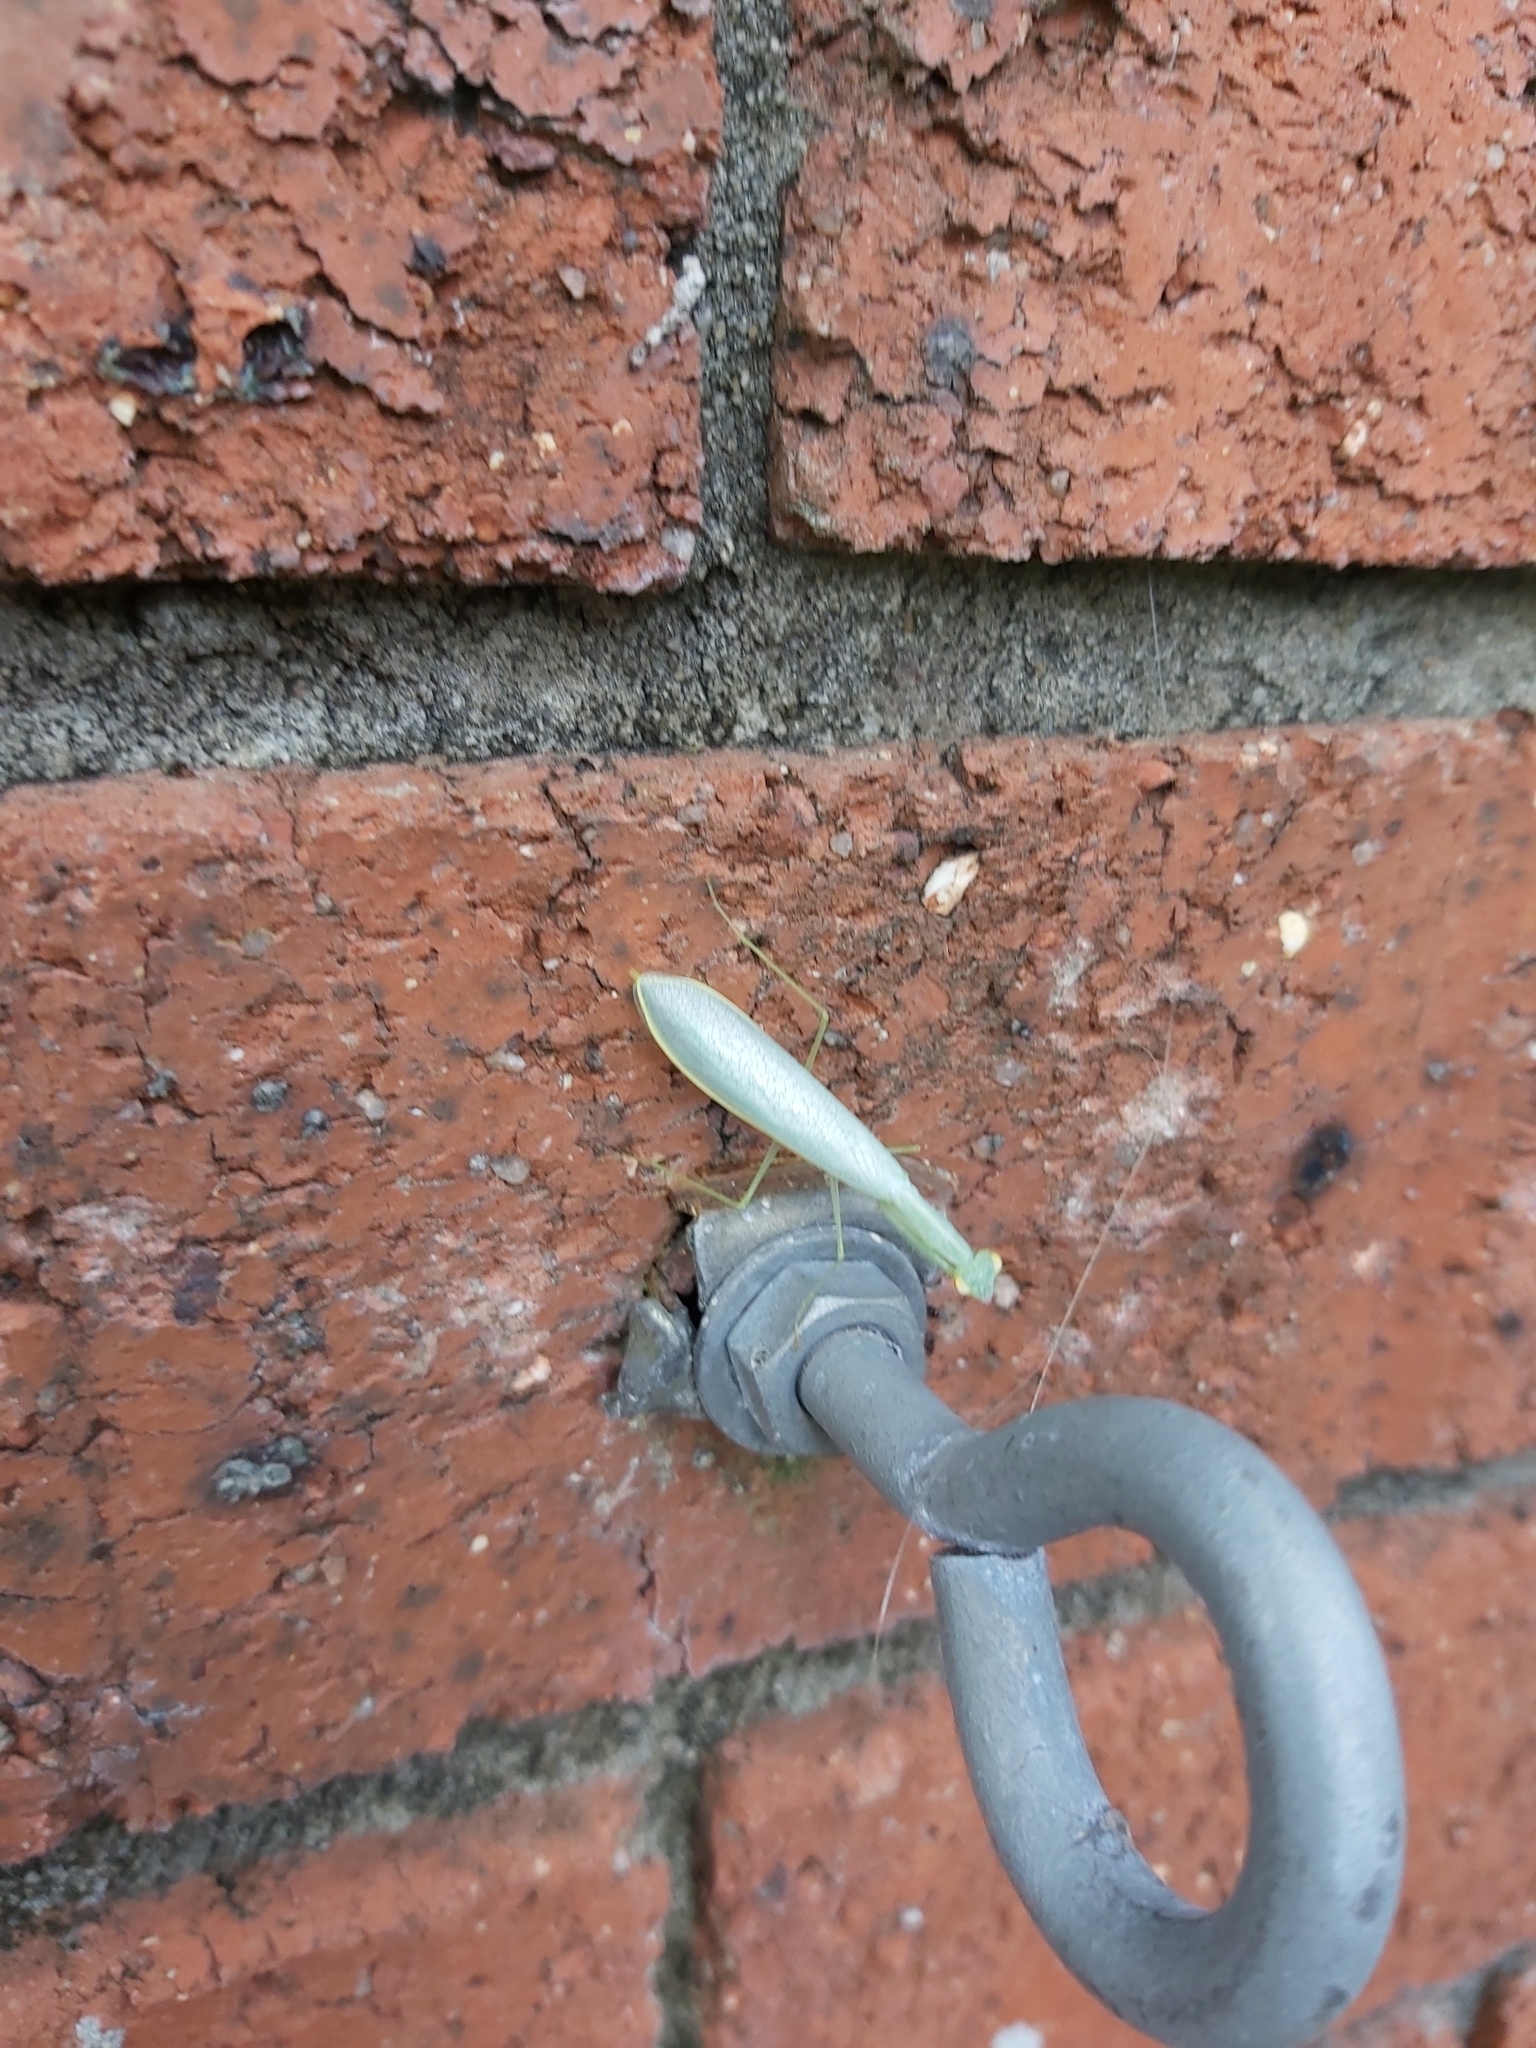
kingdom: Animalia
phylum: Arthropoda
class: Insecta
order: Mantodea
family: Nanomantidae
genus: Kongobatha
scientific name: Kongobatha diademata
